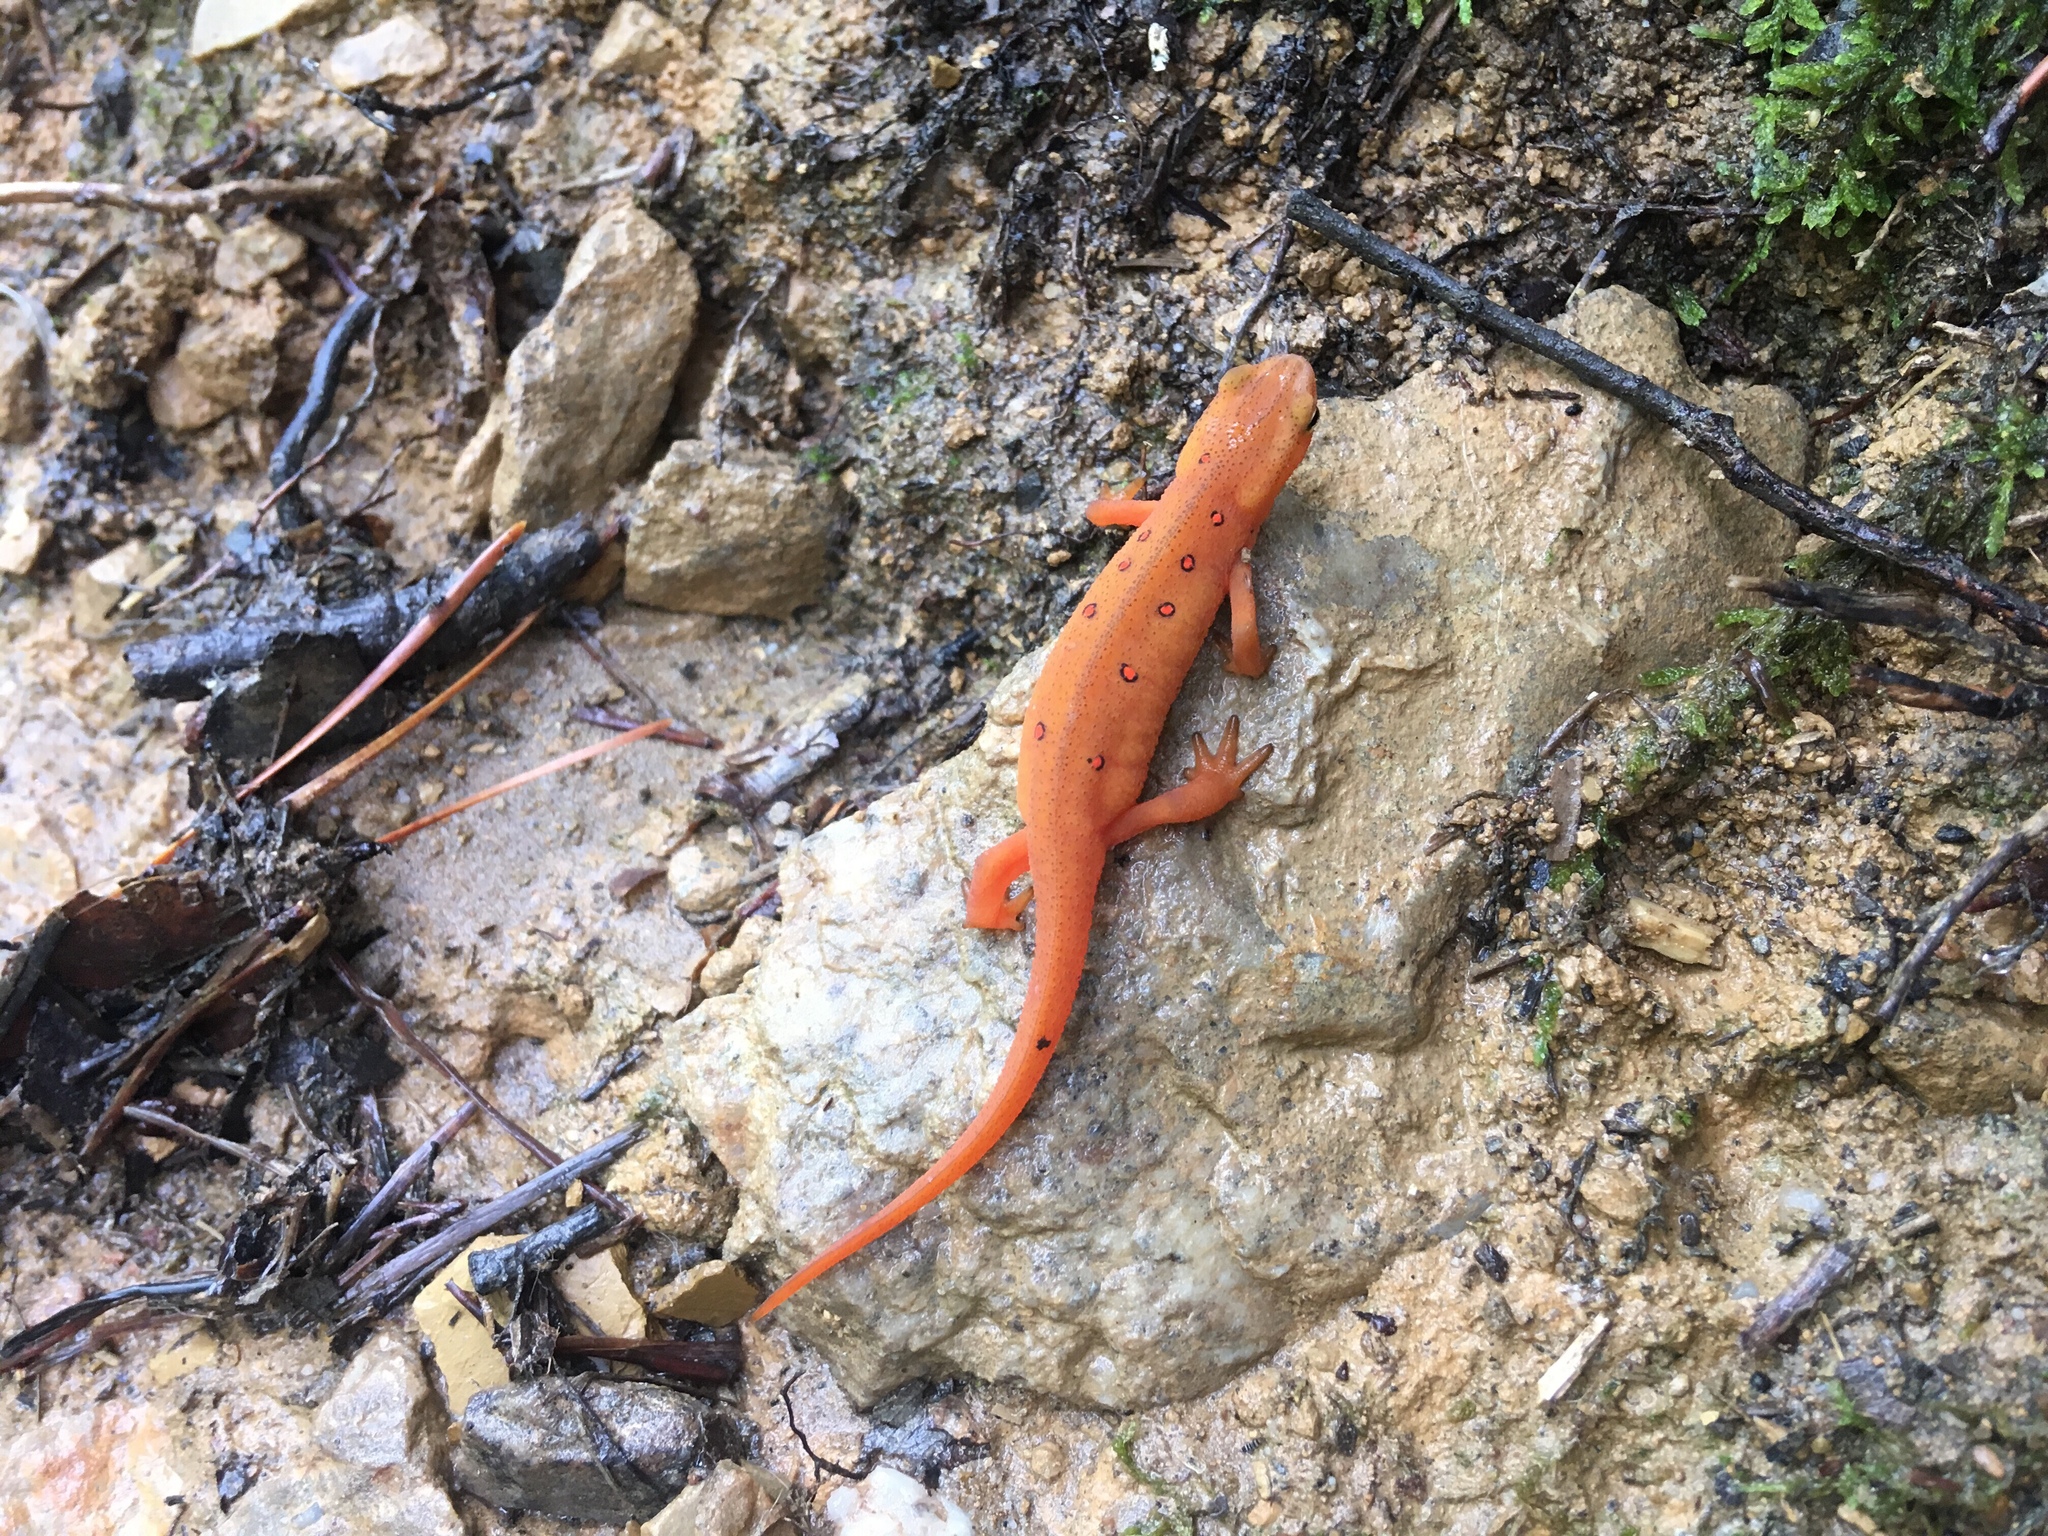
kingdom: Animalia
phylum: Chordata
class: Amphibia
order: Caudata
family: Salamandridae
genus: Notophthalmus
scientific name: Notophthalmus viridescens
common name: Eastern newt
